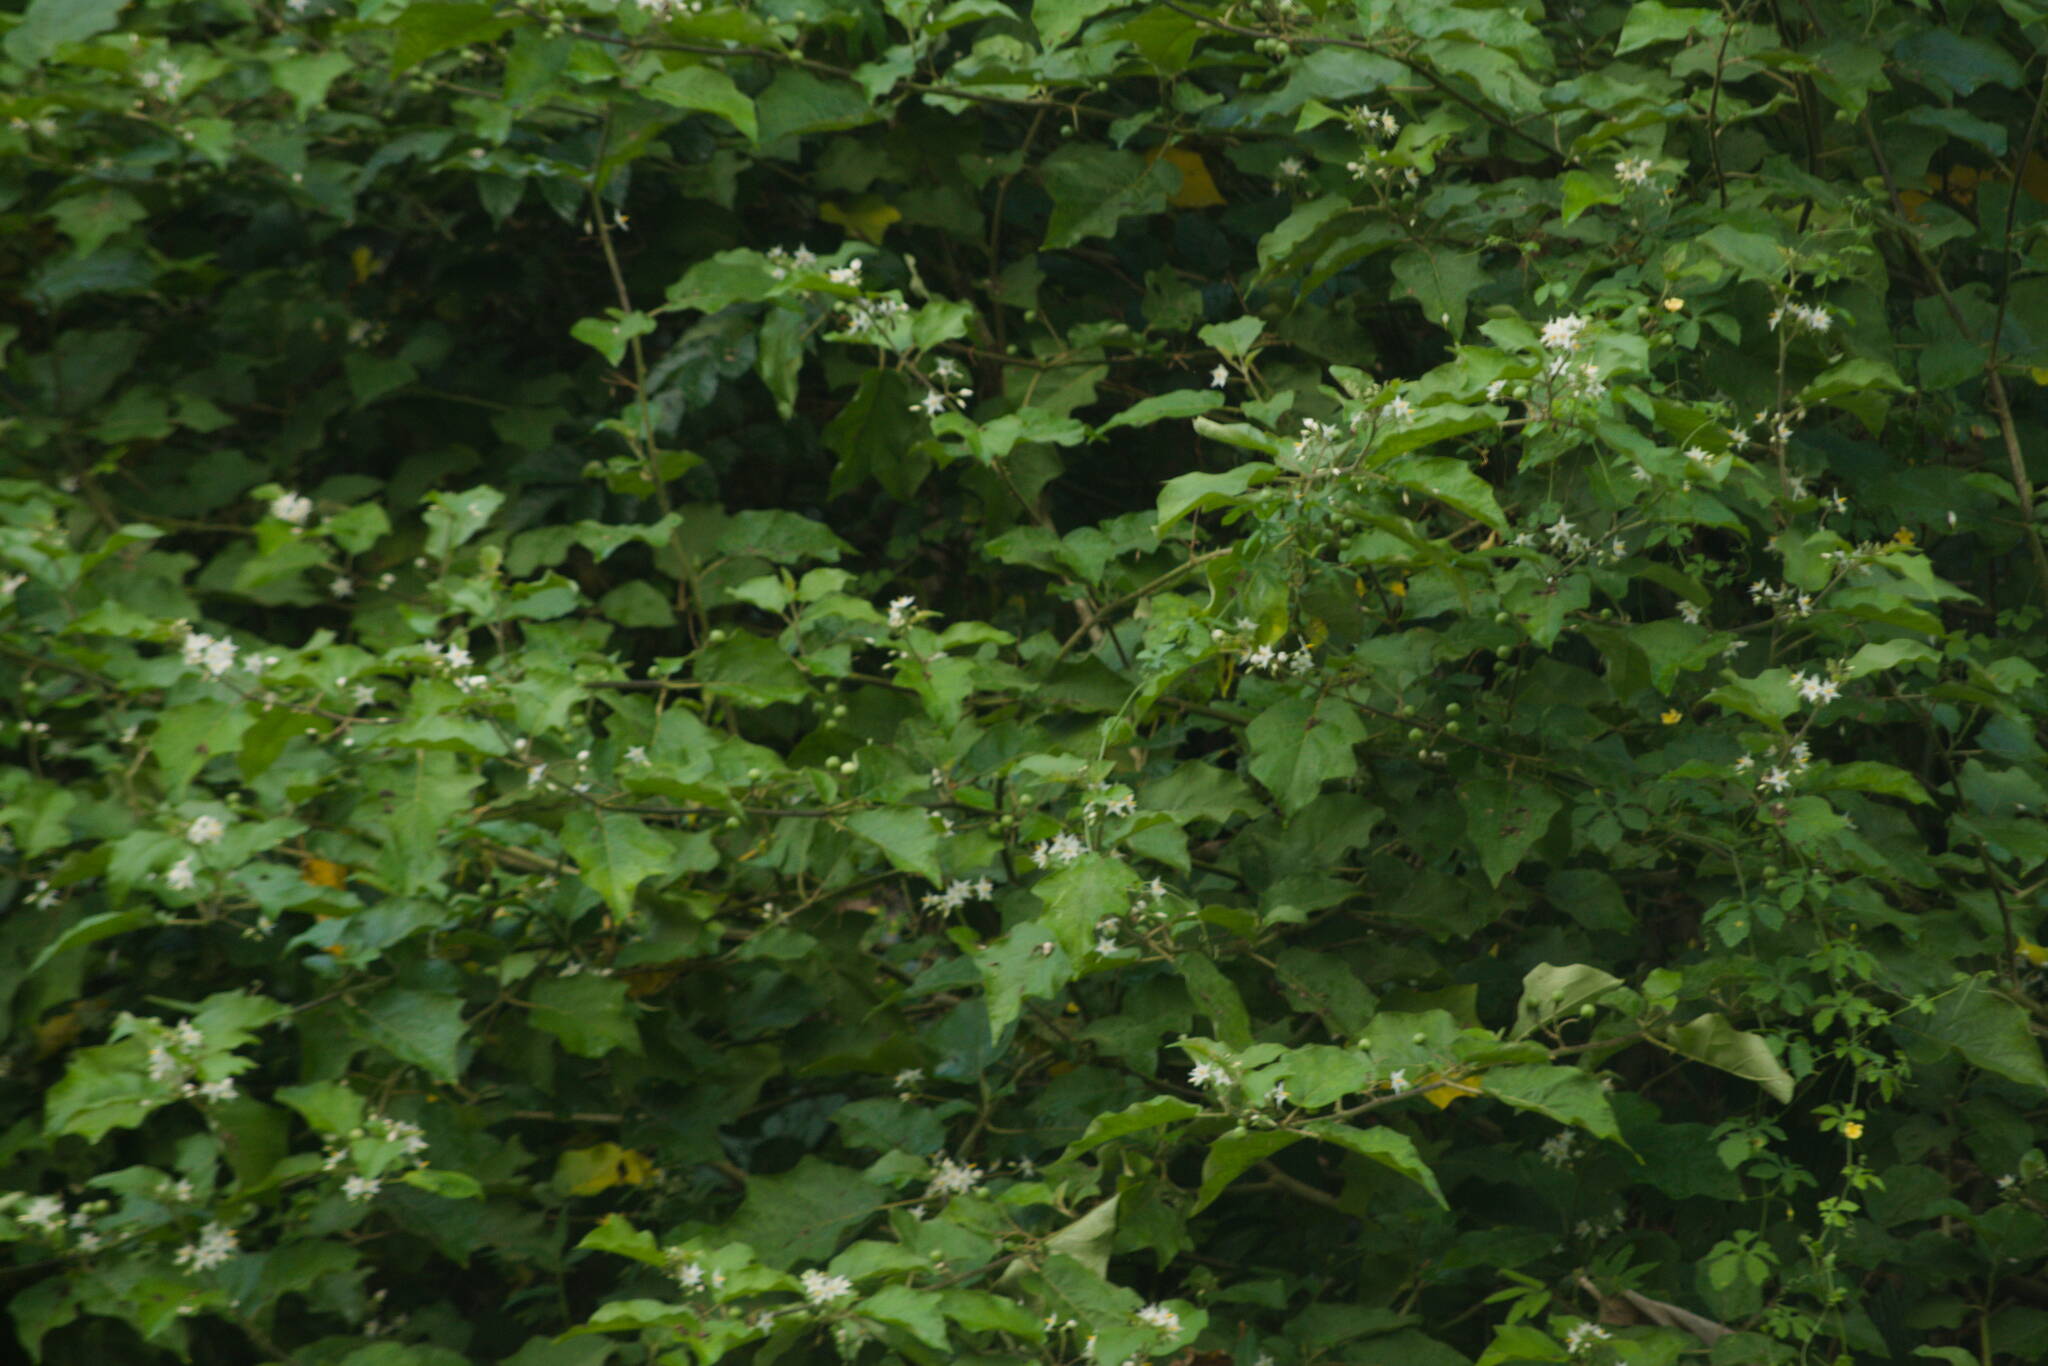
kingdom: Plantae
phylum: Tracheophyta
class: Magnoliopsida
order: Solanales
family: Solanaceae
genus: Solanum
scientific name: Solanum torvum
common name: Turkey berry
